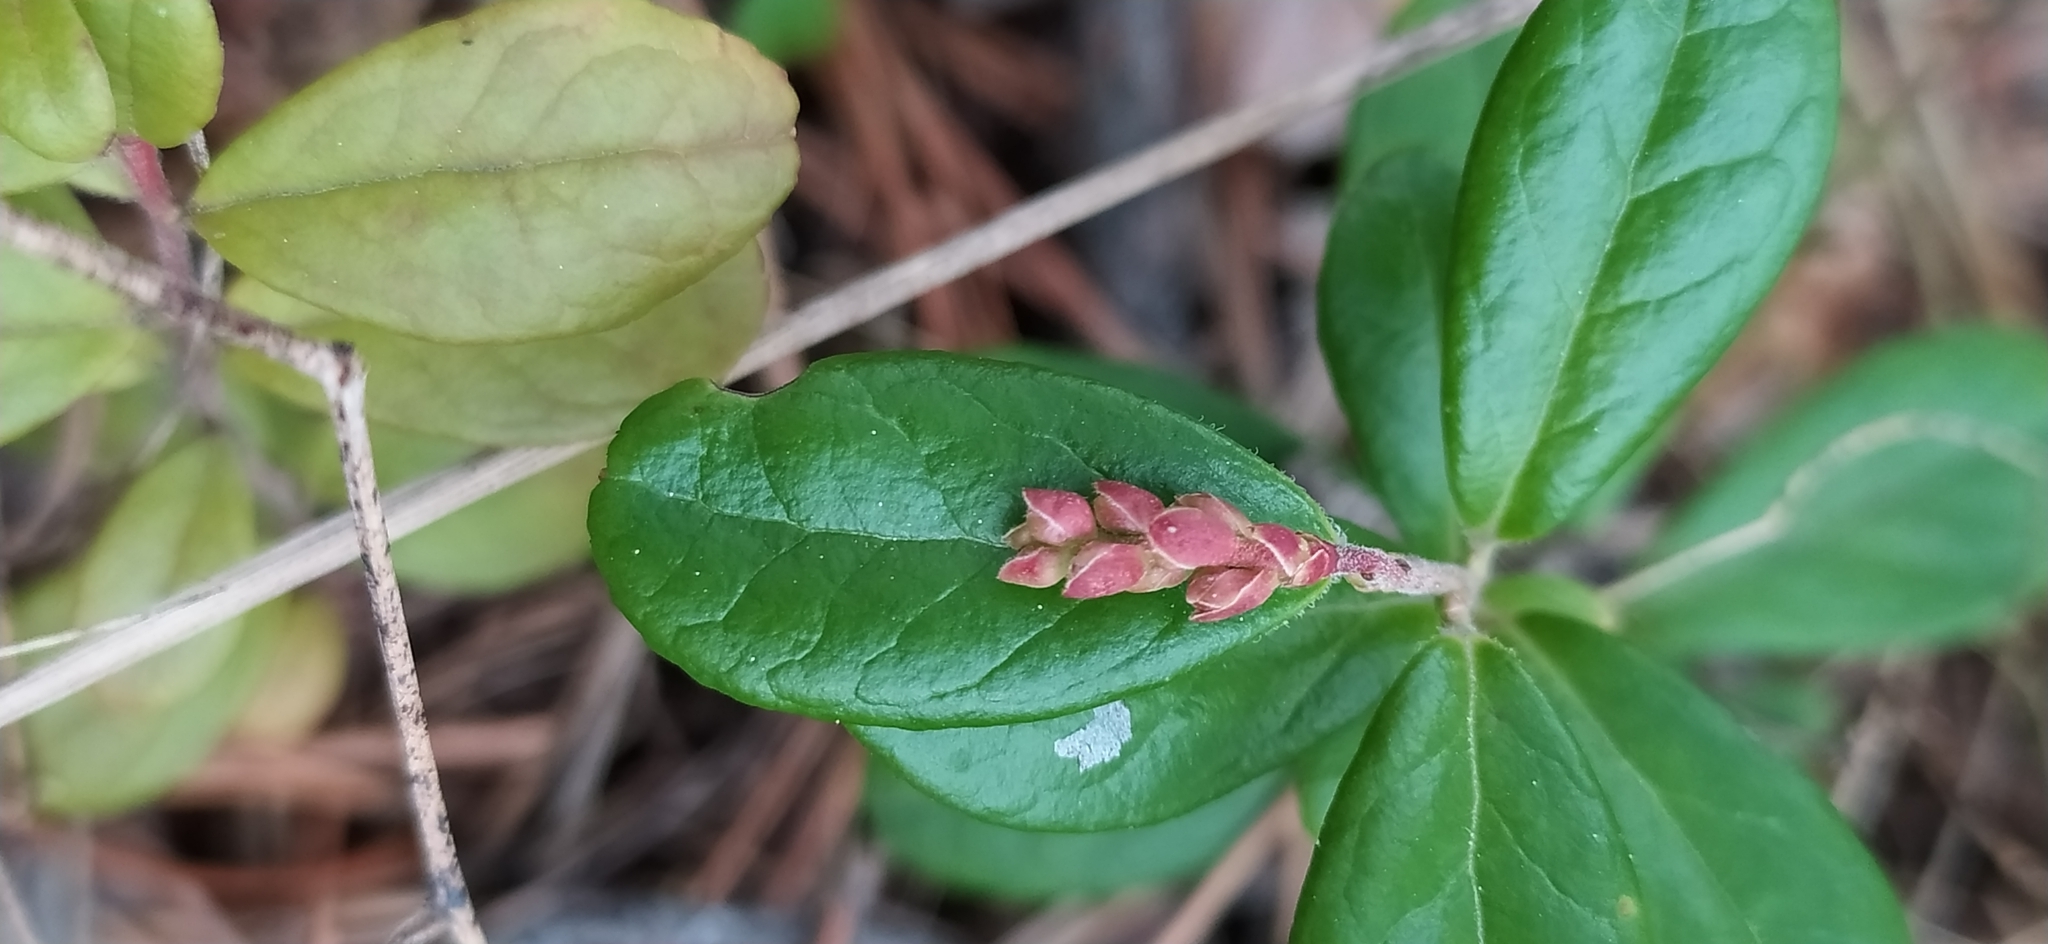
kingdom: Plantae
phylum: Tracheophyta
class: Magnoliopsida
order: Ericales
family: Ericaceae
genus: Vaccinium
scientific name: Vaccinium vitis-idaea
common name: Cowberry
